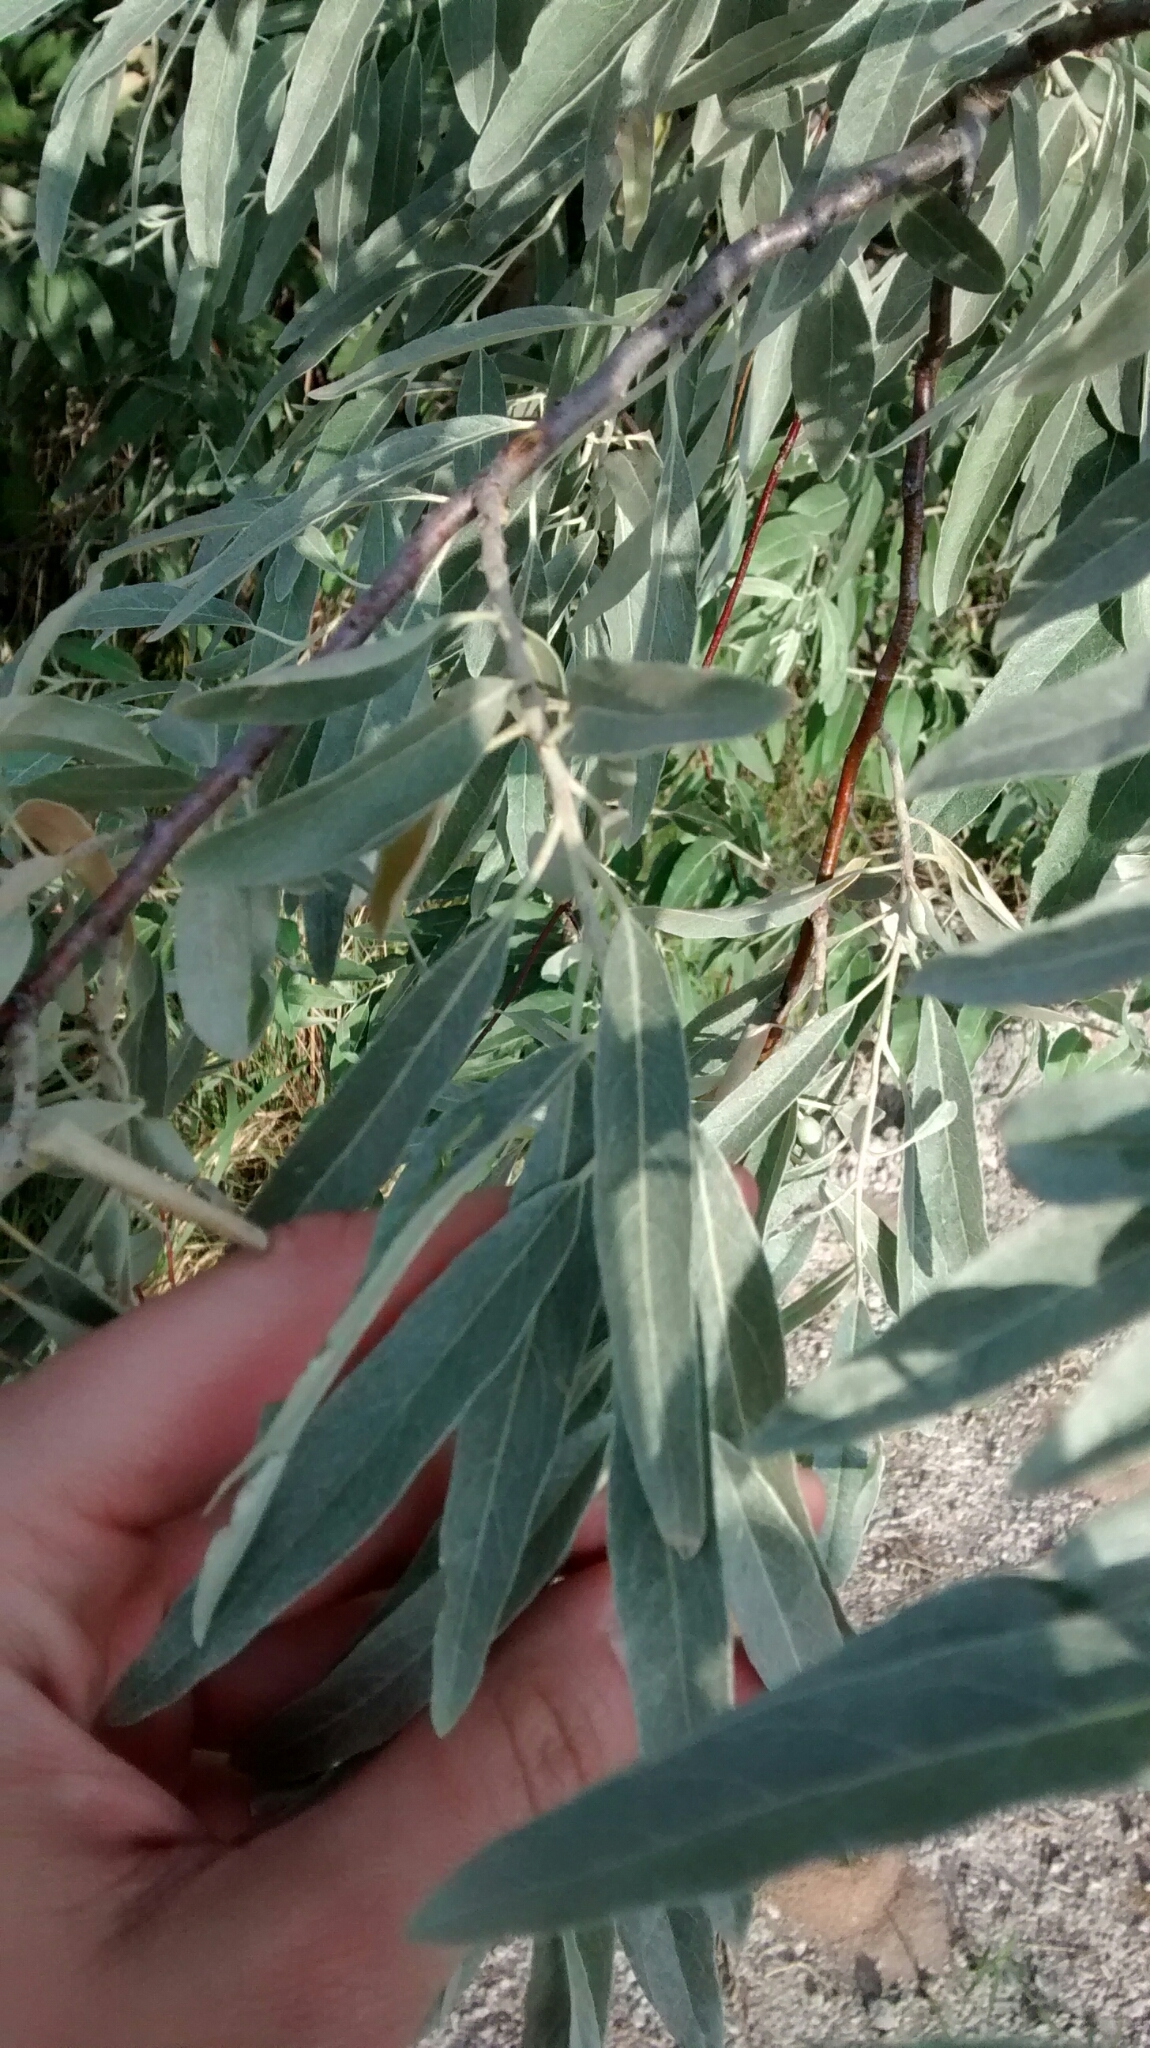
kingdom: Plantae
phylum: Tracheophyta
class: Magnoliopsida
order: Rosales
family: Elaeagnaceae
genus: Elaeagnus
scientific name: Elaeagnus angustifolia
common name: Russian olive
